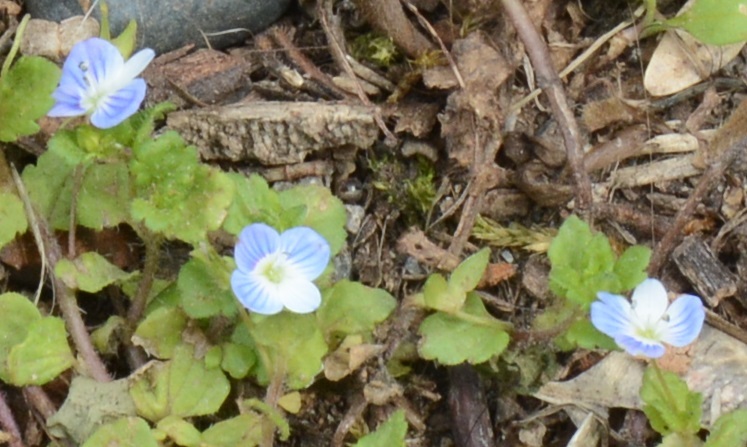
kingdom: Plantae
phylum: Tracheophyta
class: Magnoliopsida
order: Lamiales
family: Plantaginaceae
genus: Veronica
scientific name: Veronica persica
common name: Common field-speedwell
